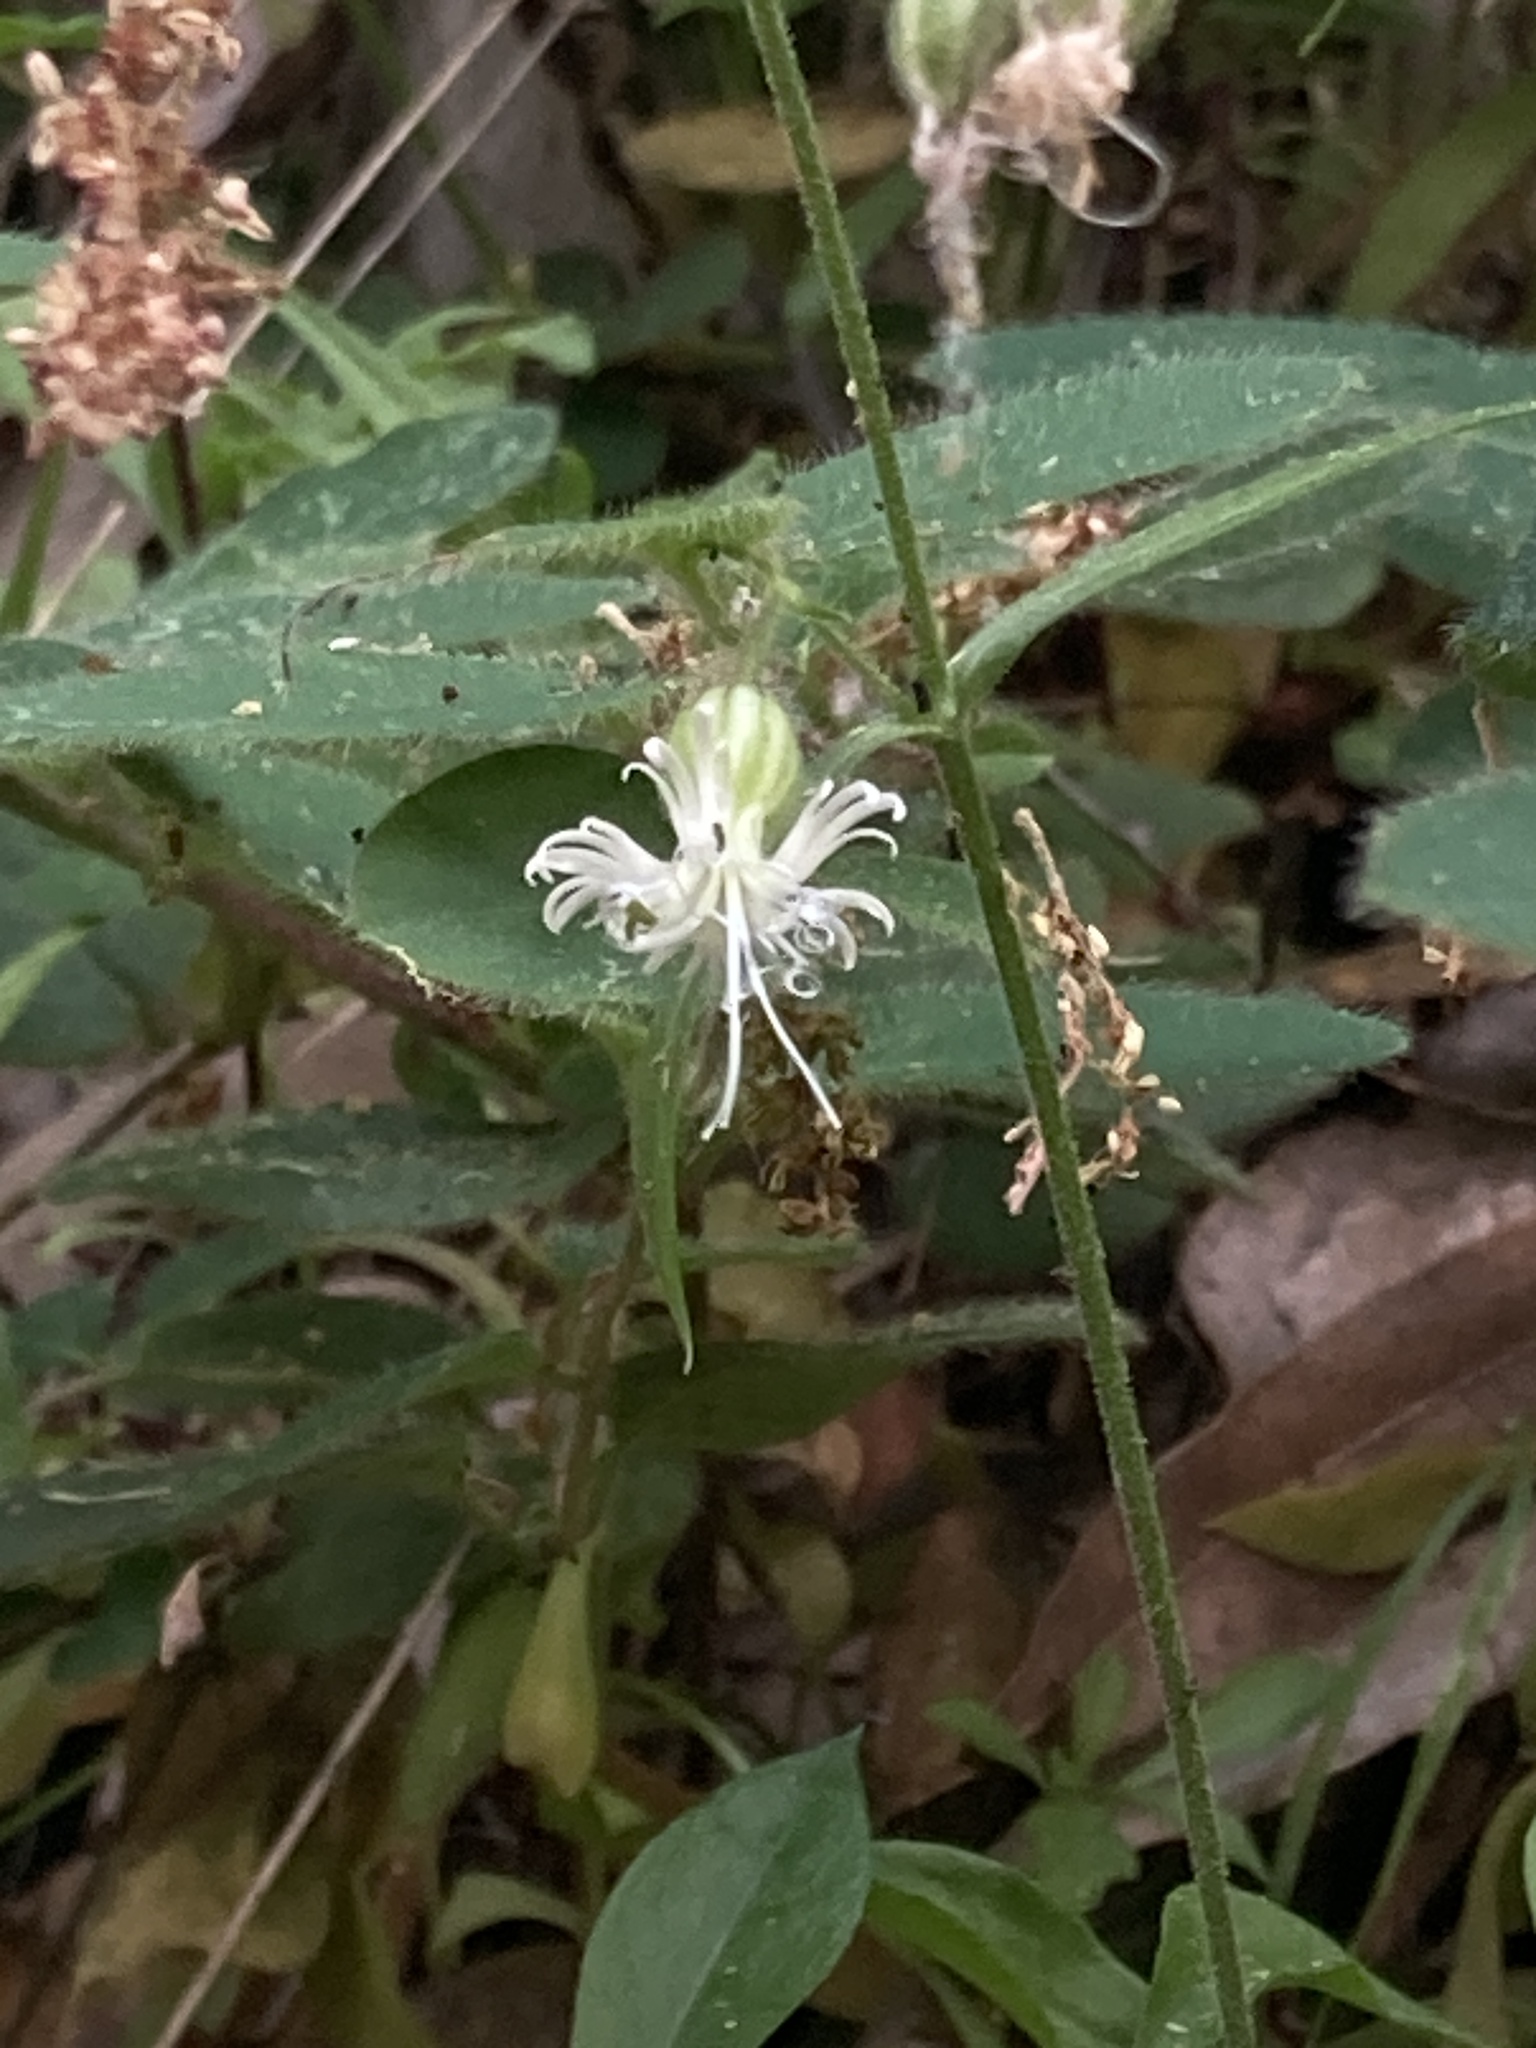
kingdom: Plantae
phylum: Tracheophyta
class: Magnoliopsida
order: Caryophyllales
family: Caryophyllaceae
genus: Silene
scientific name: Silene lemmonii
